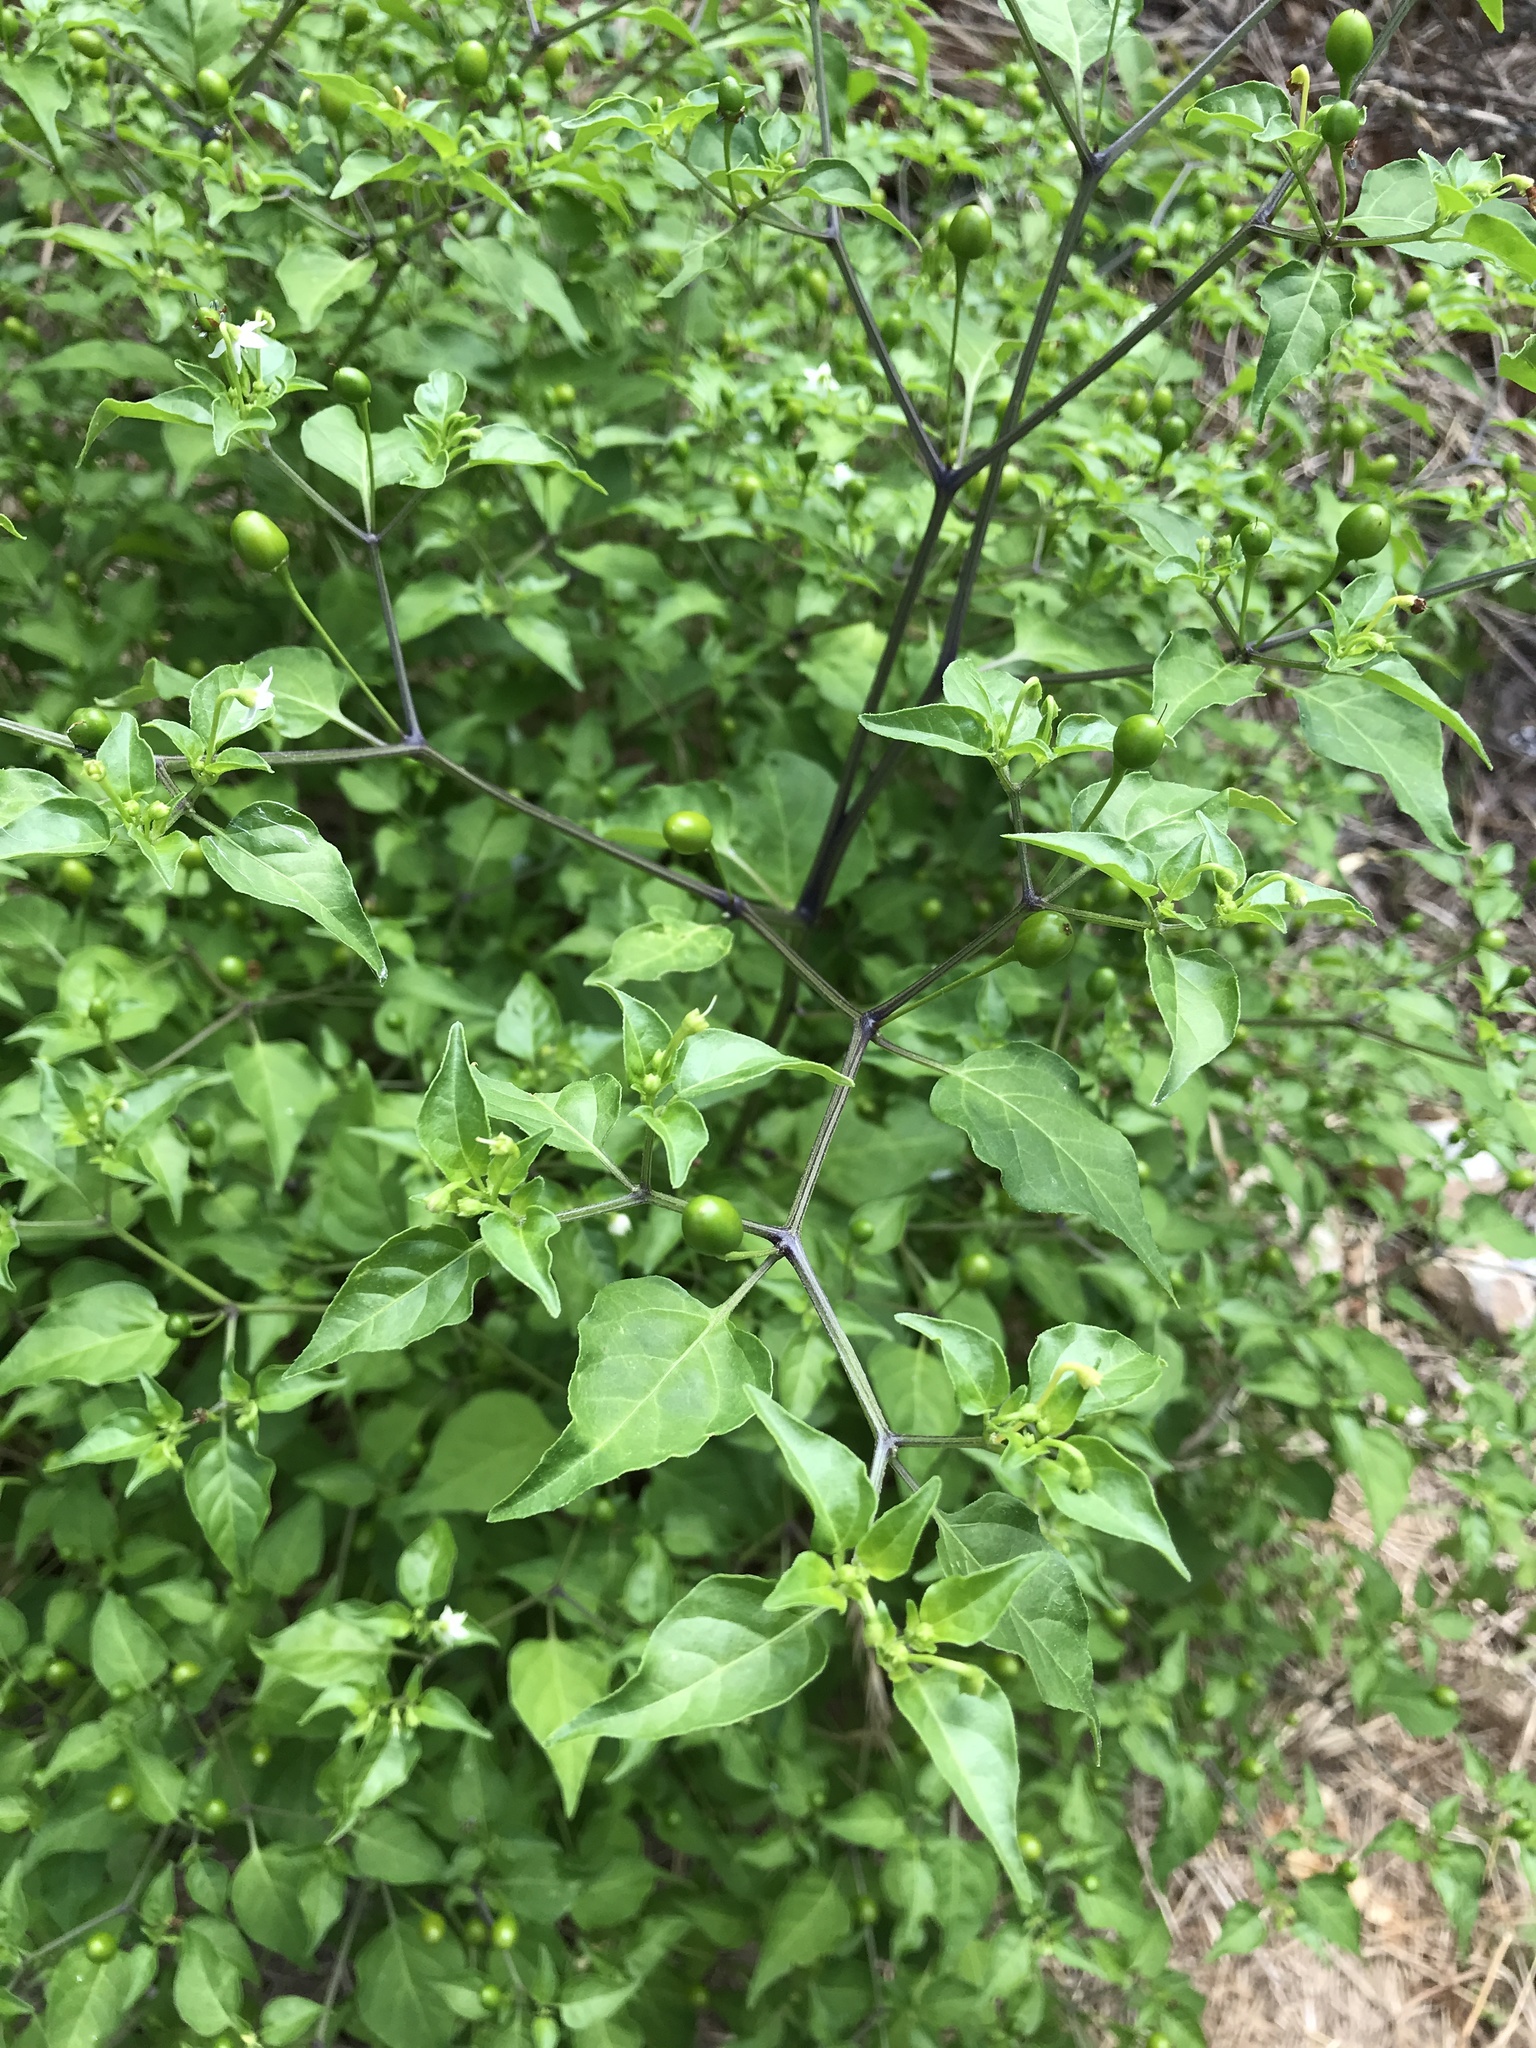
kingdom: Plantae
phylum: Tracheophyta
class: Magnoliopsida
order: Solanales
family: Solanaceae
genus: Capsicum
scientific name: Capsicum annuum
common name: Sweet pepper
